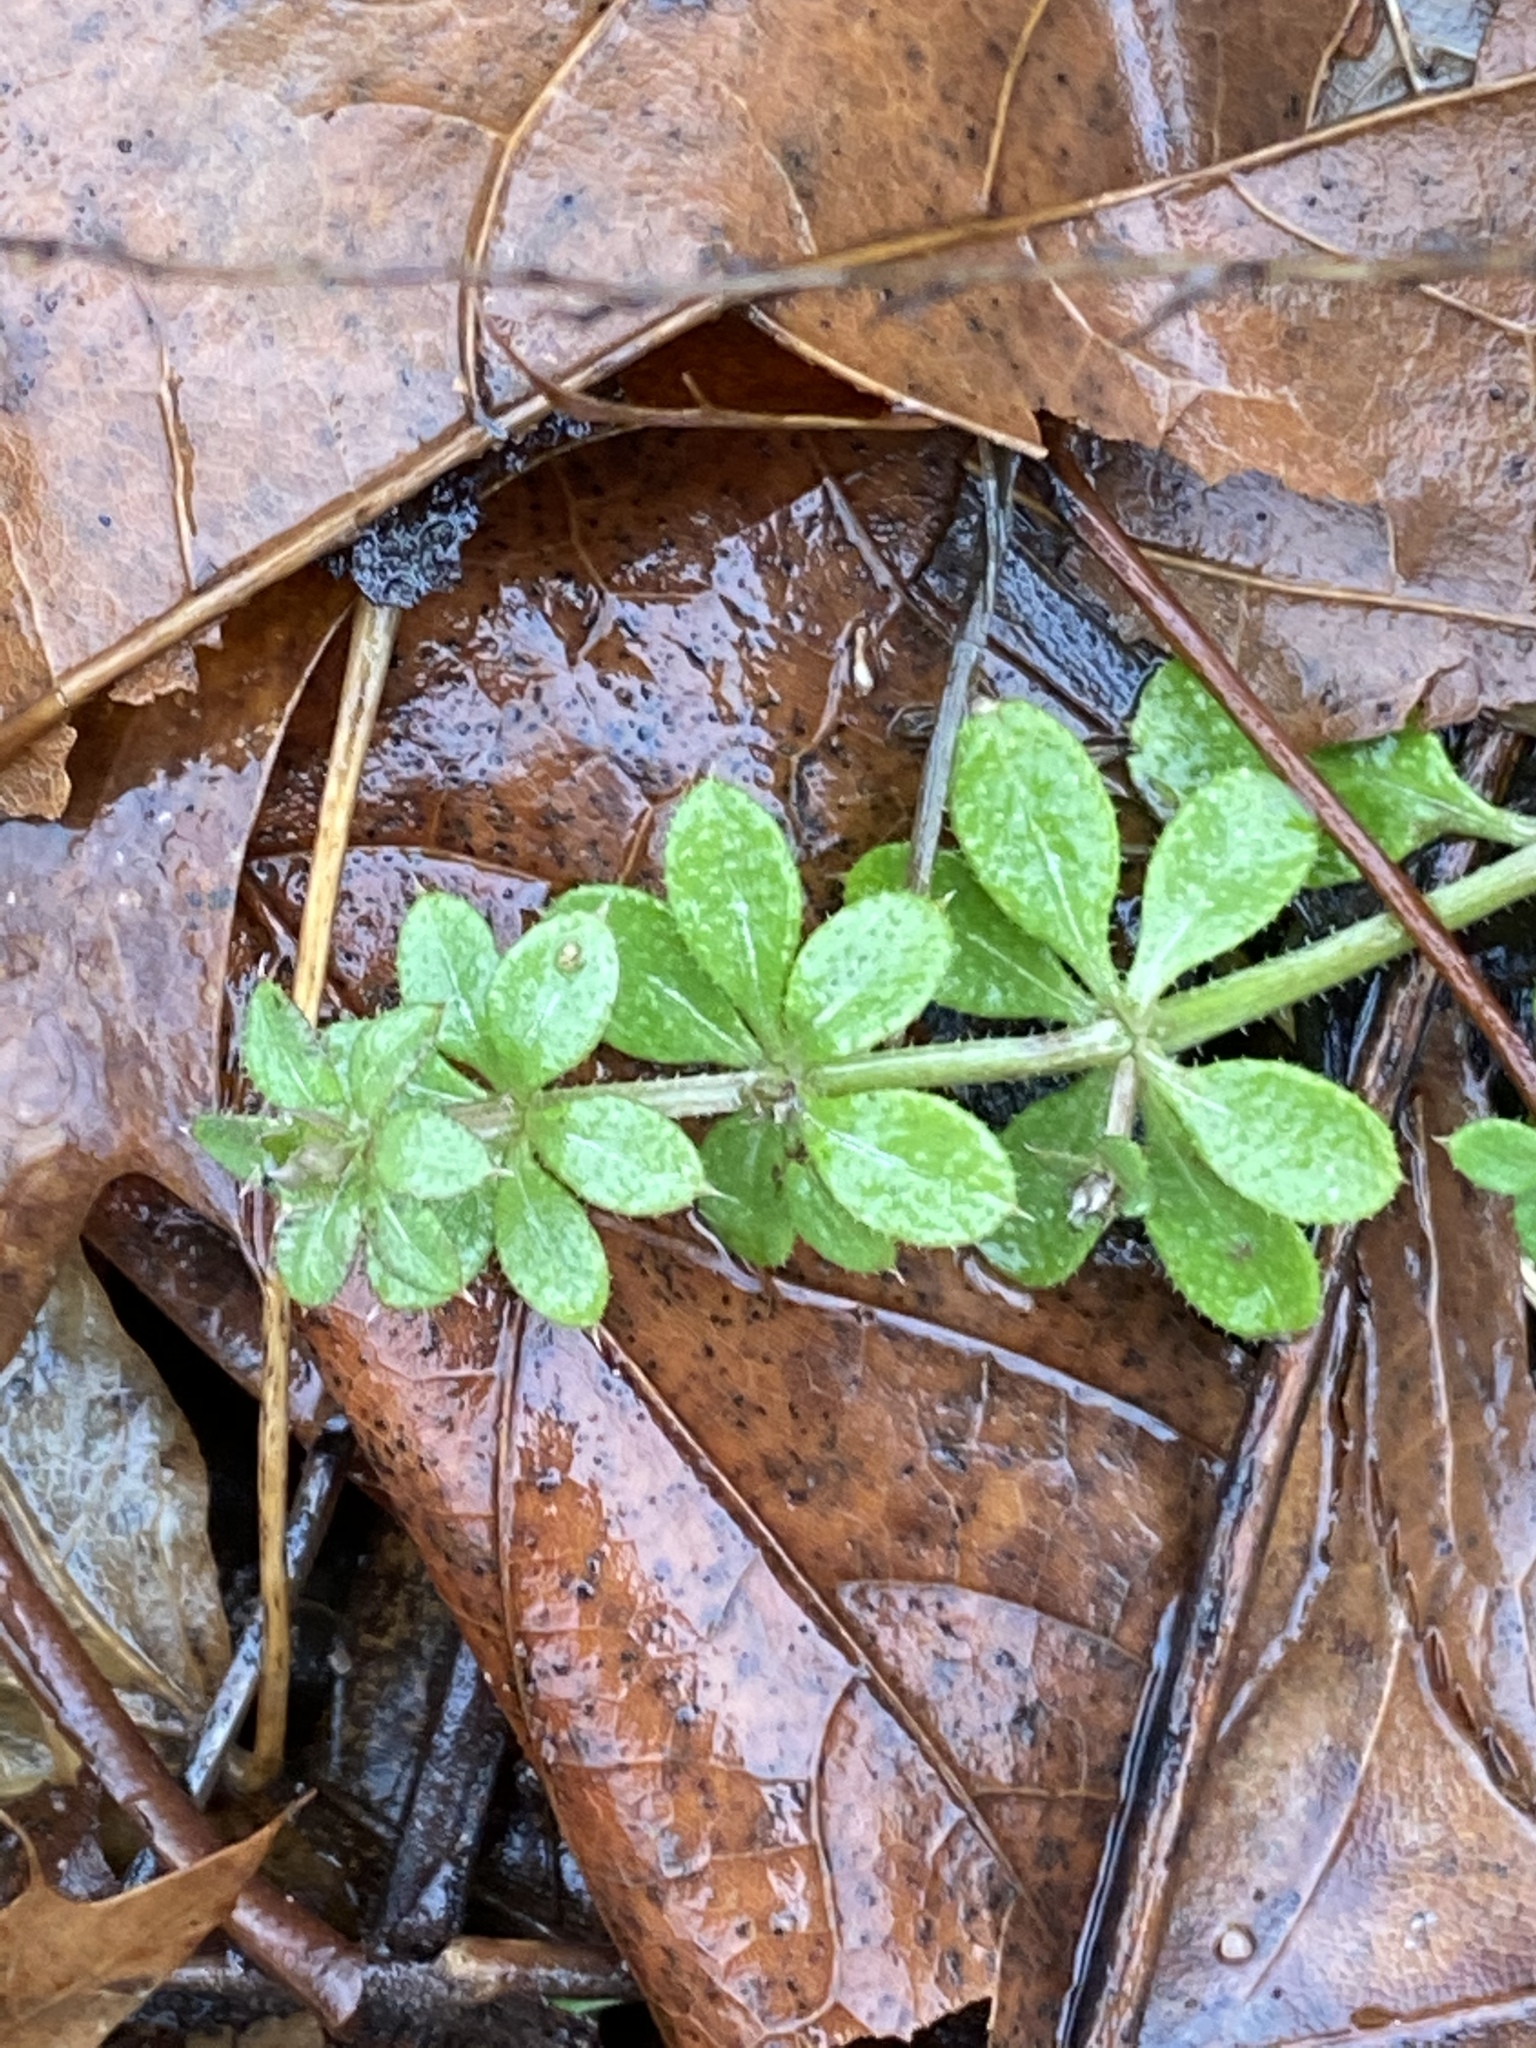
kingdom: Plantae
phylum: Tracheophyta
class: Magnoliopsida
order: Gentianales
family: Rubiaceae
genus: Galium
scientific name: Galium aparine
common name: Cleavers
